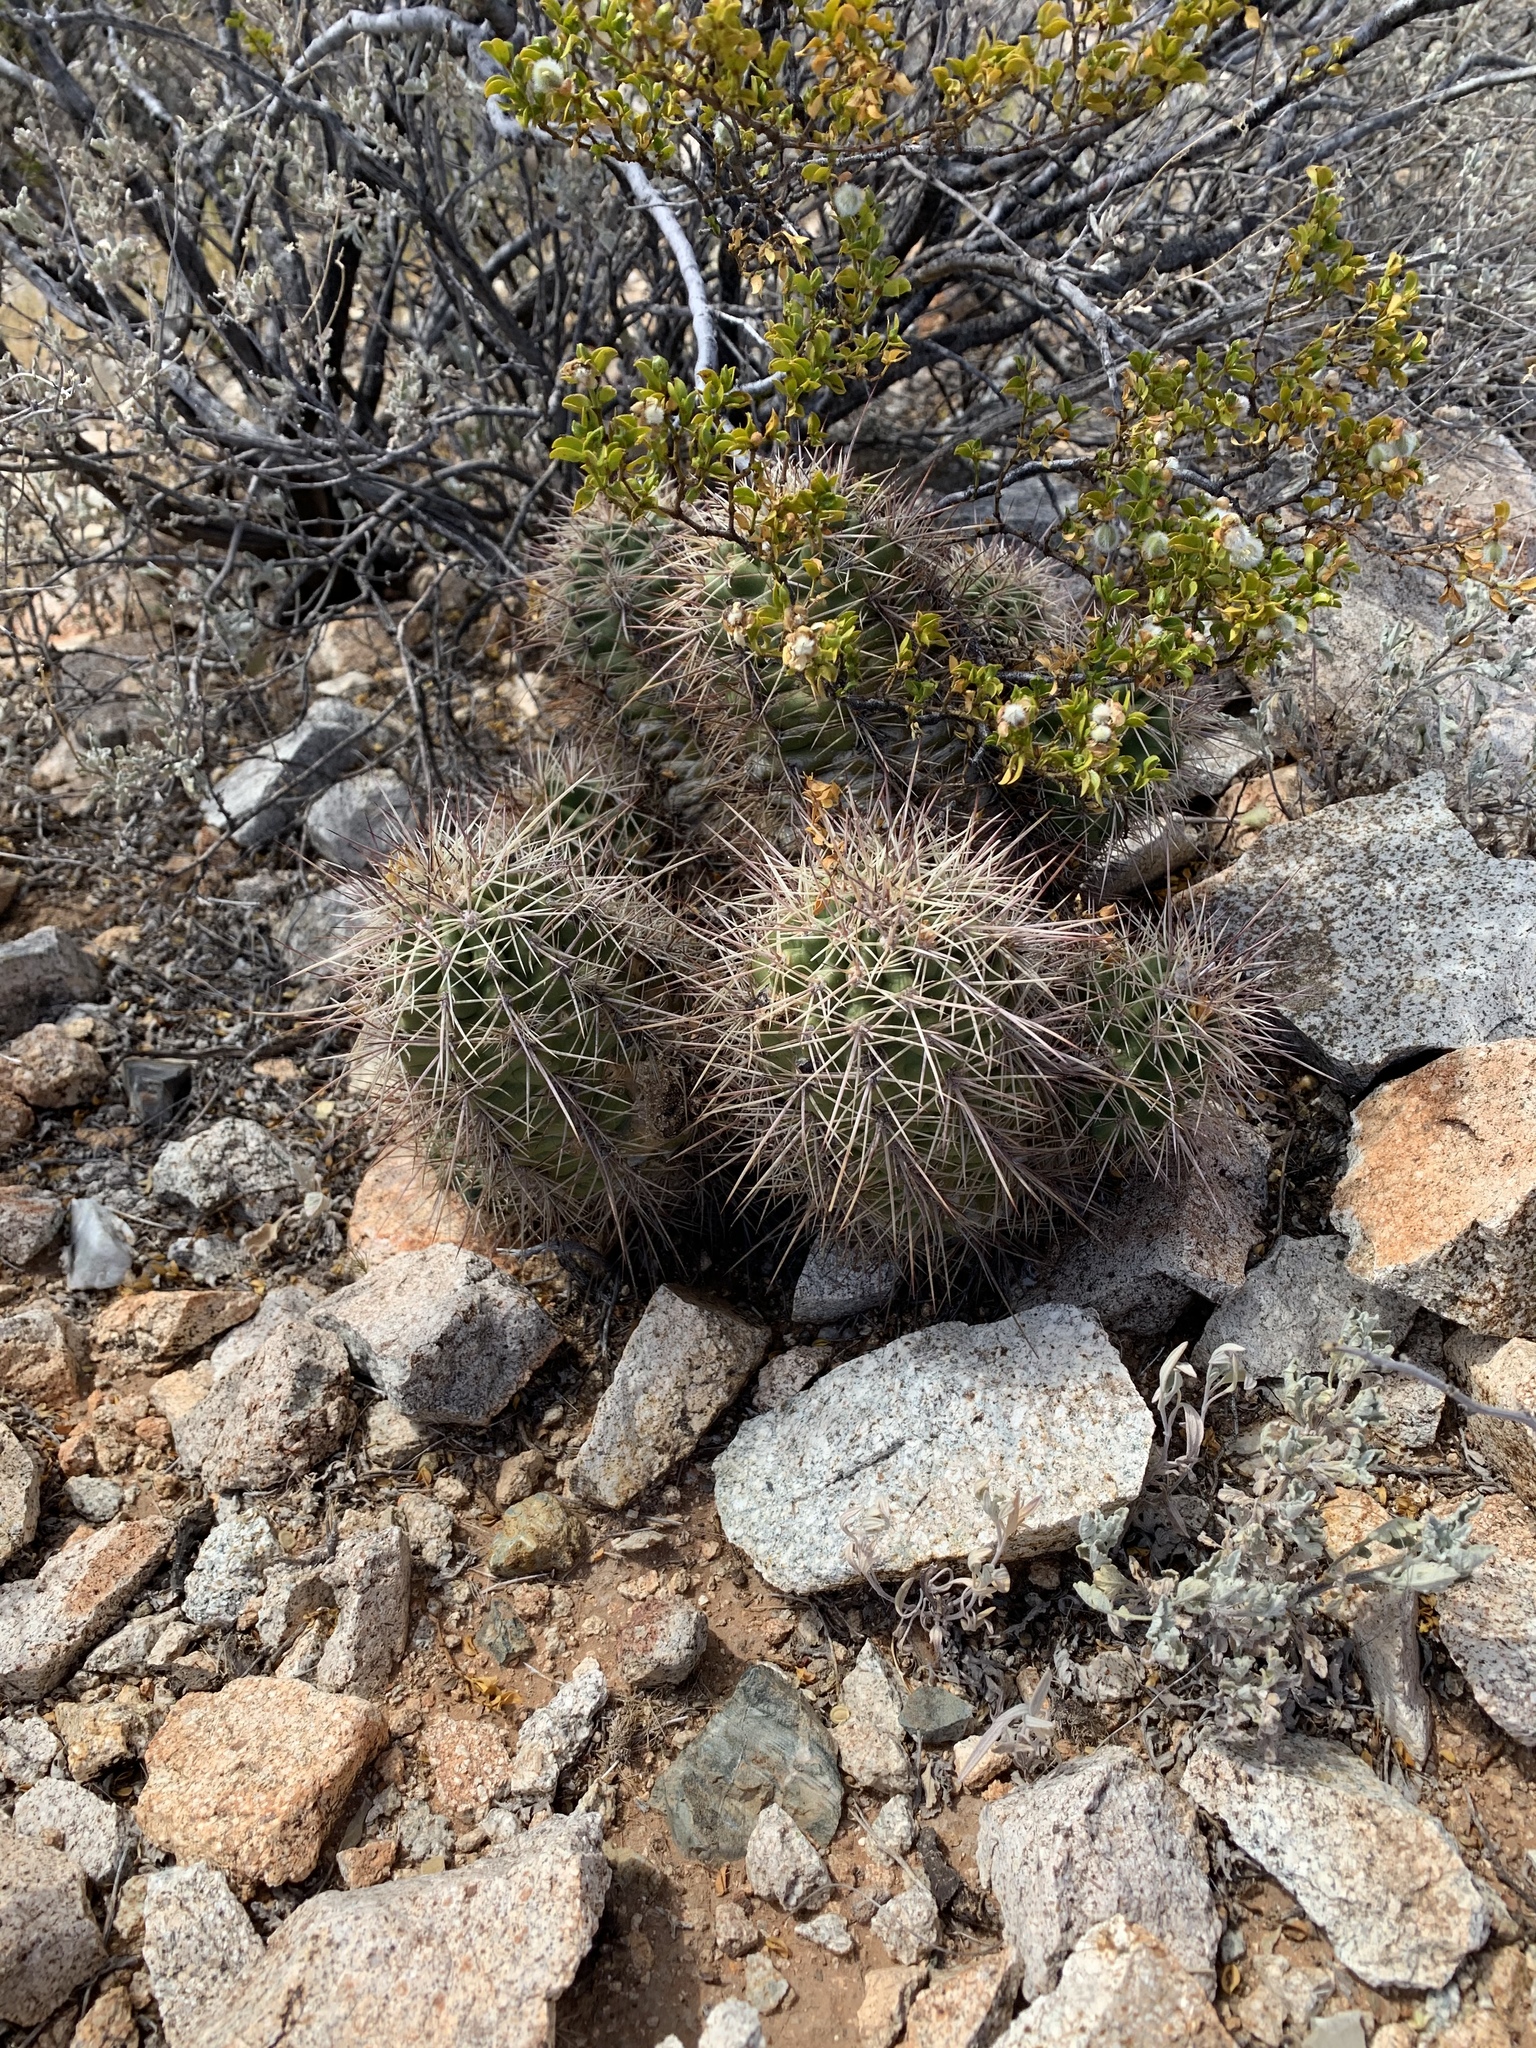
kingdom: Plantae
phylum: Tracheophyta
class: Magnoliopsida
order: Caryophyllales
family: Cactaceae
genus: Echinocereus
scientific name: Echinocereus coccineus
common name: Scarlet hedgehog cactus
